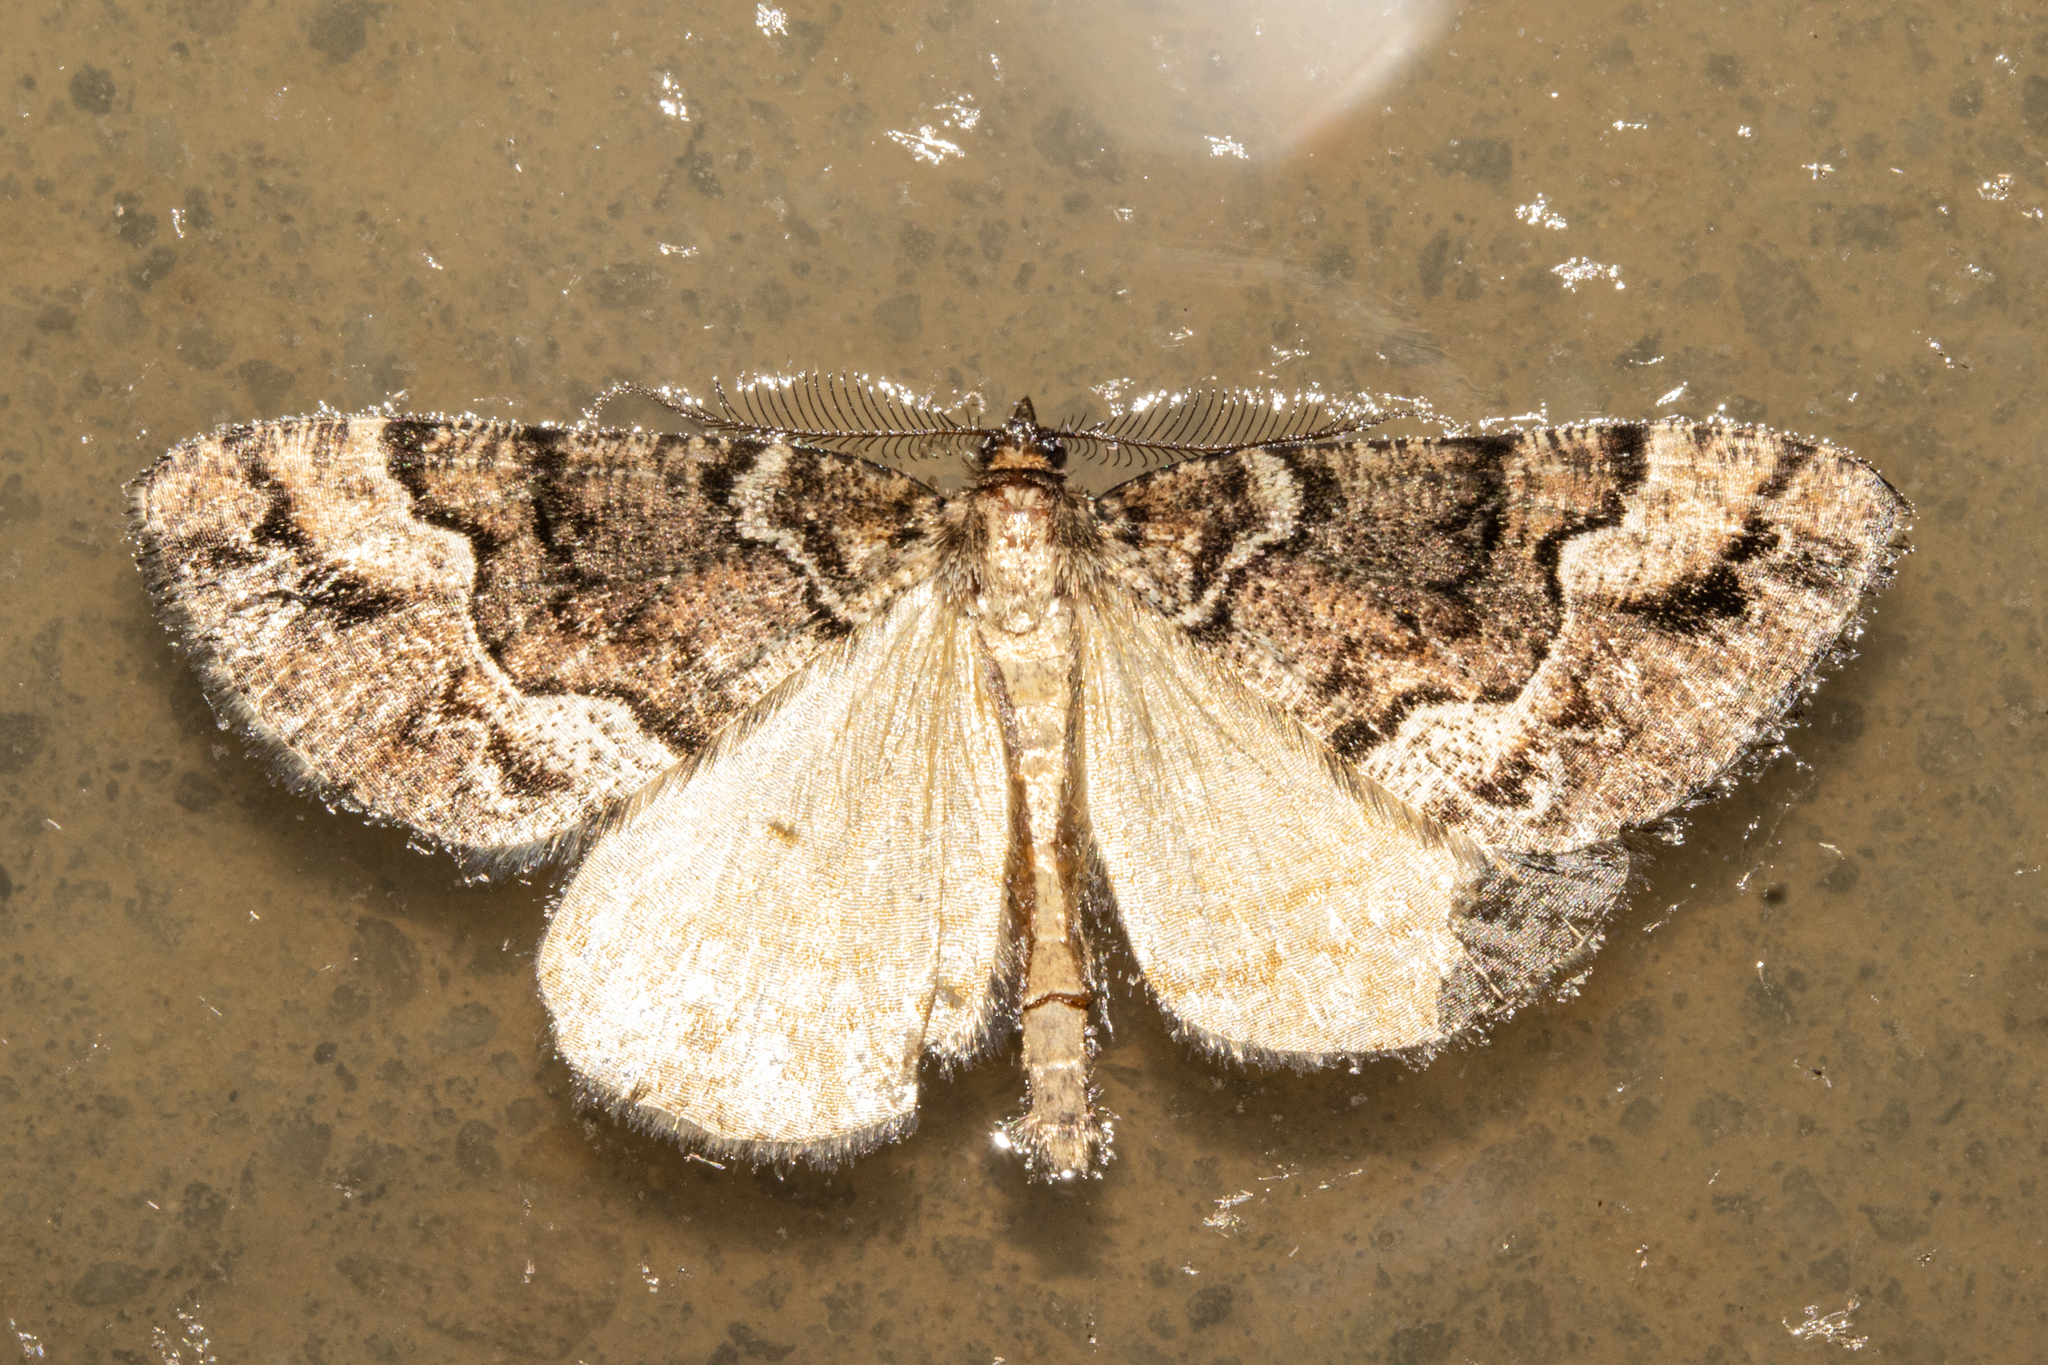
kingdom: Animalia
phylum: Arthropoda
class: Insecta
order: Lepidoptera
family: Geometridae
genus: Pseudocoremia
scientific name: Pseudocoremia colpogramma
